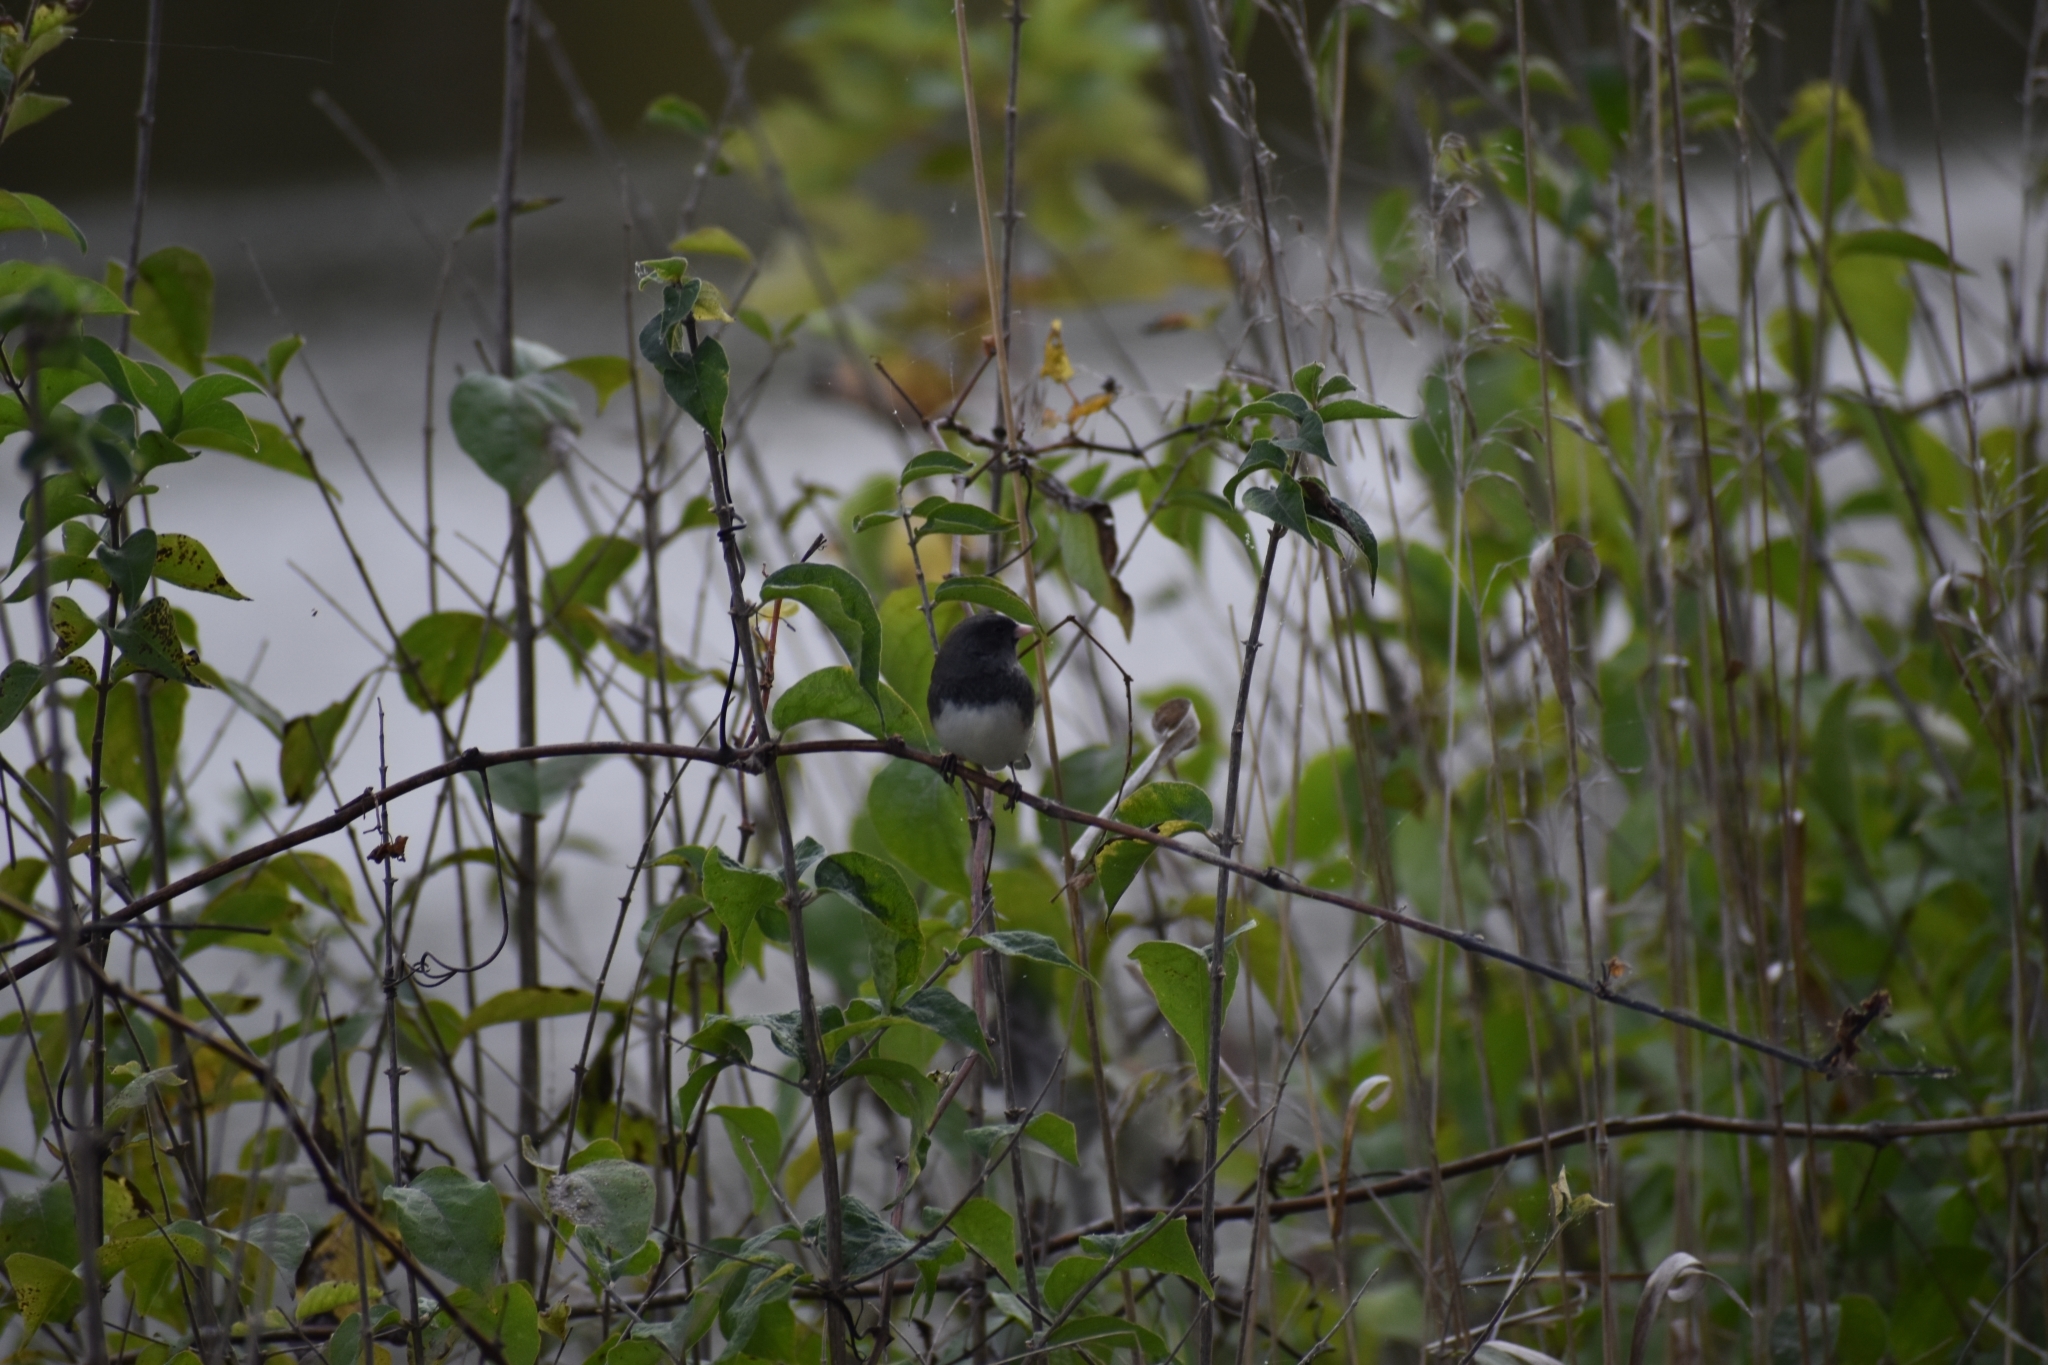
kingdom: Animalia
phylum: Chordata
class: Aves
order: Passeriformes
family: Passerellidae
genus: Junco
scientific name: Junco hyemalis
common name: Dark-eyed junco
